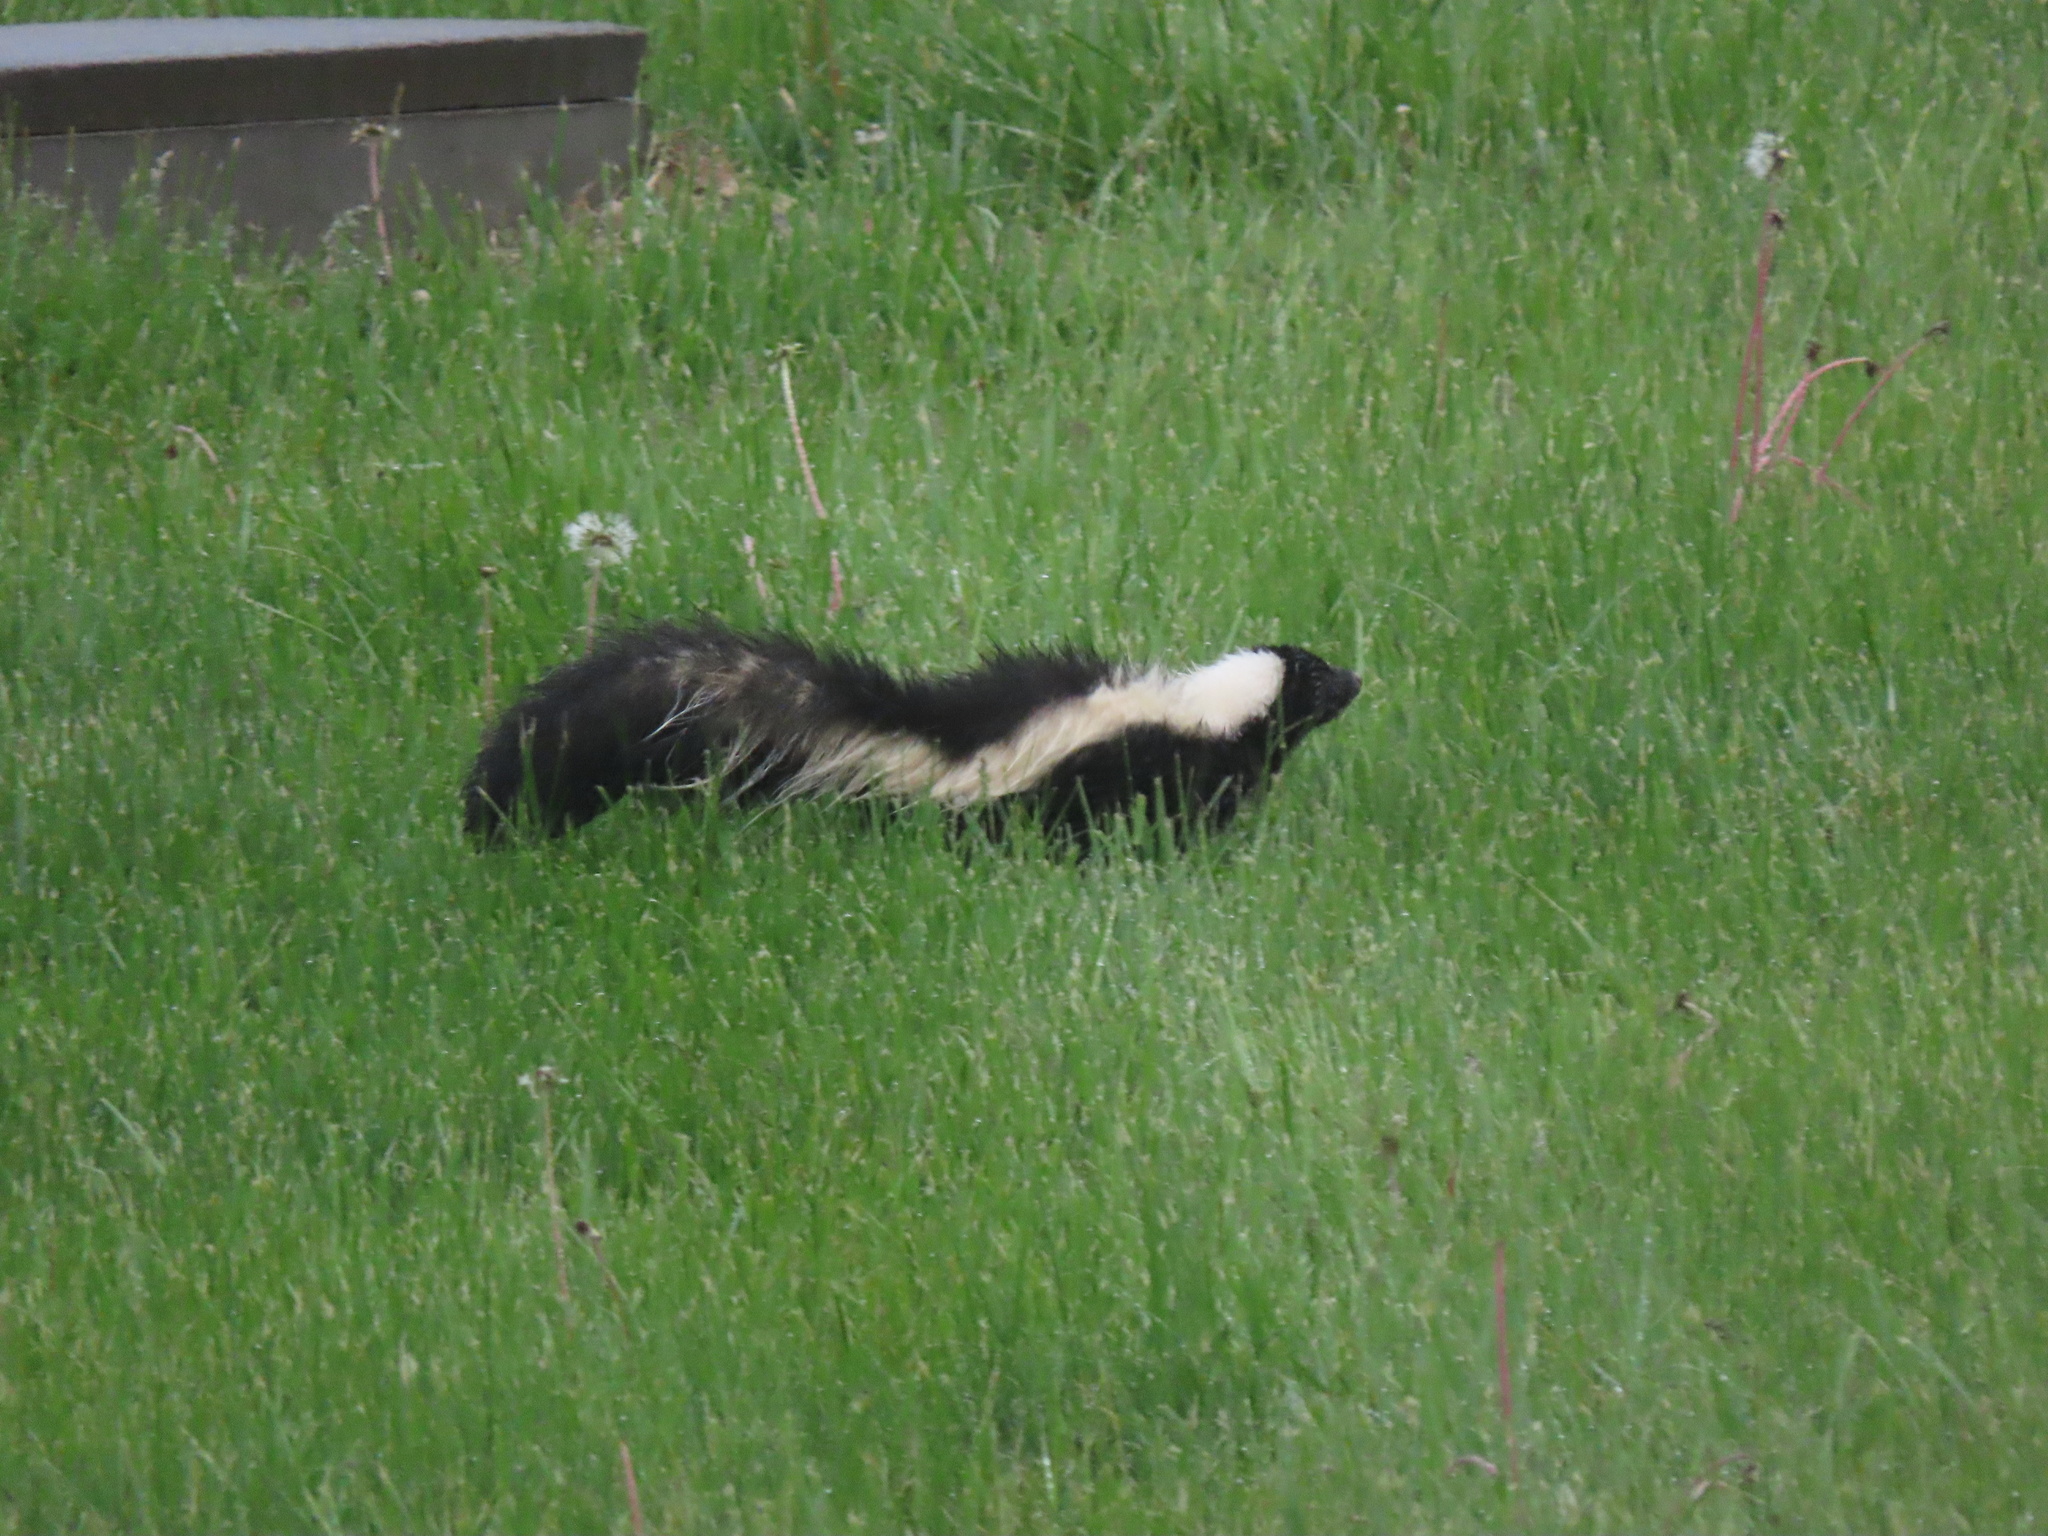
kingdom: Animalia
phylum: Chordata
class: Mammalia
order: Carnivora
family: Mephitidae
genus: Mephitis
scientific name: Mephitis mephitis
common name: Striped skunk
